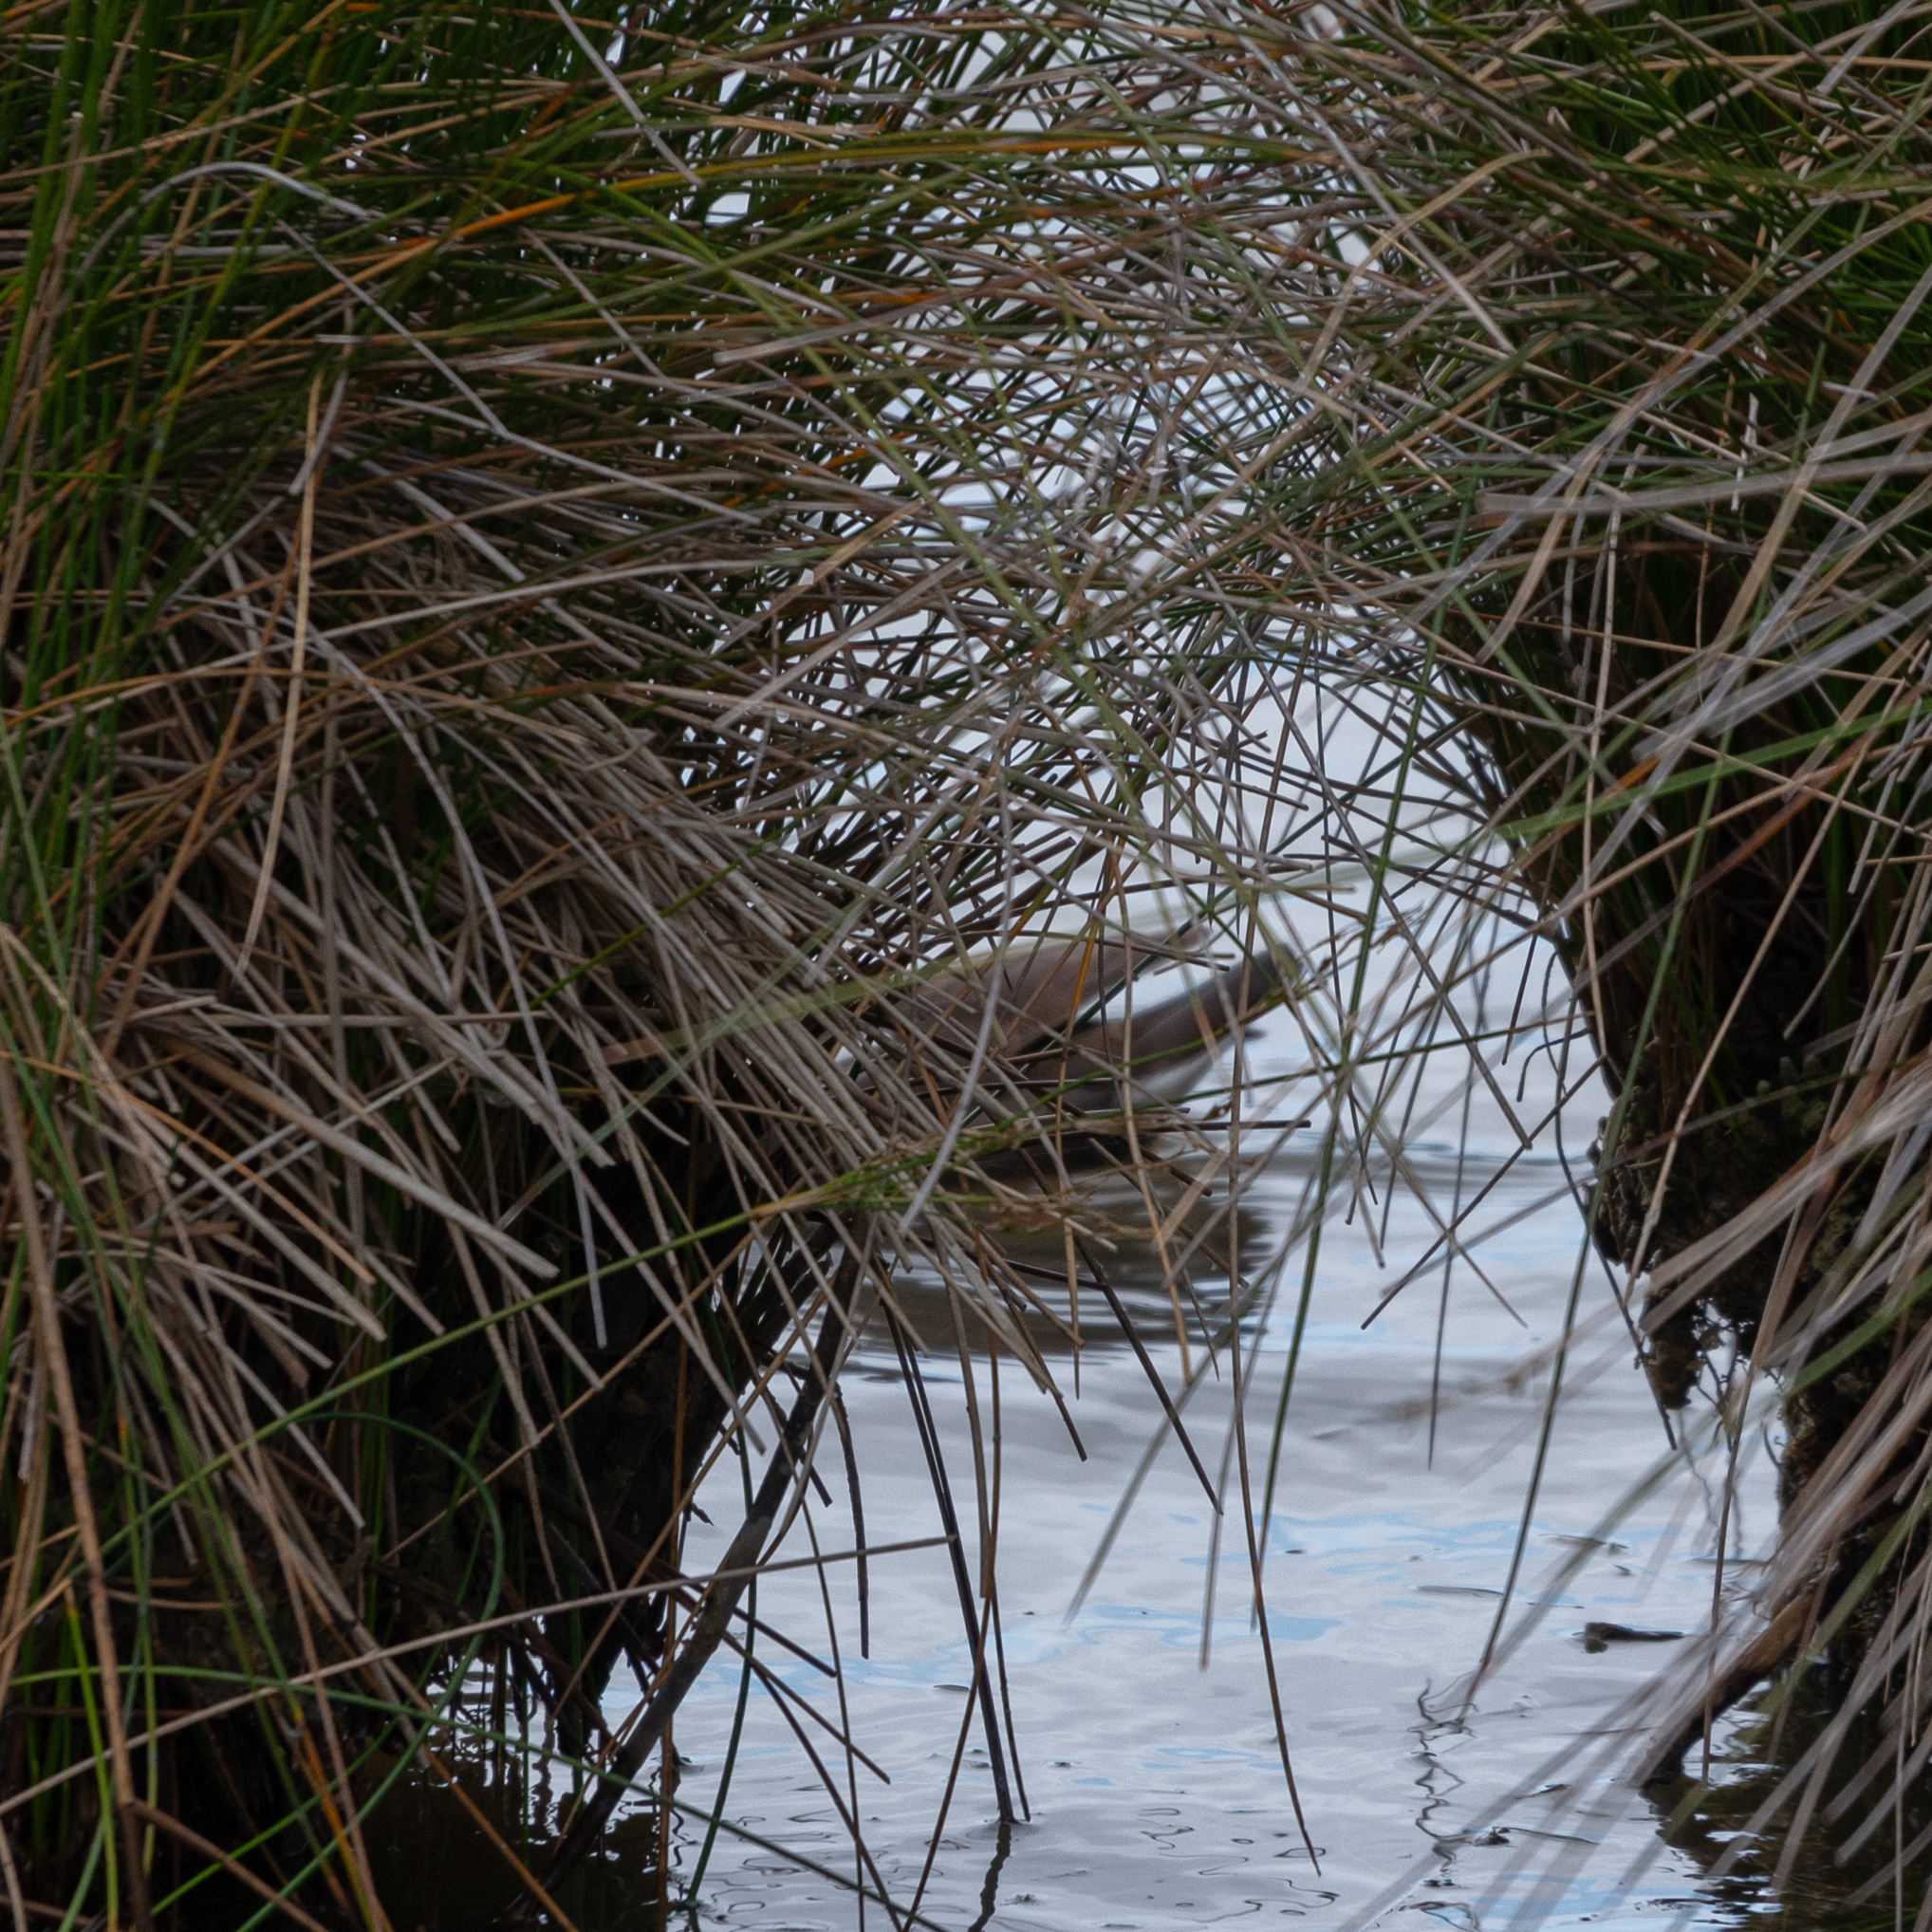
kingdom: Animalia
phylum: Chordata
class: Aves
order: Gruiformes
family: Rallidae
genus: Gallinula
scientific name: Gallinula chloropus
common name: Common moorhen
